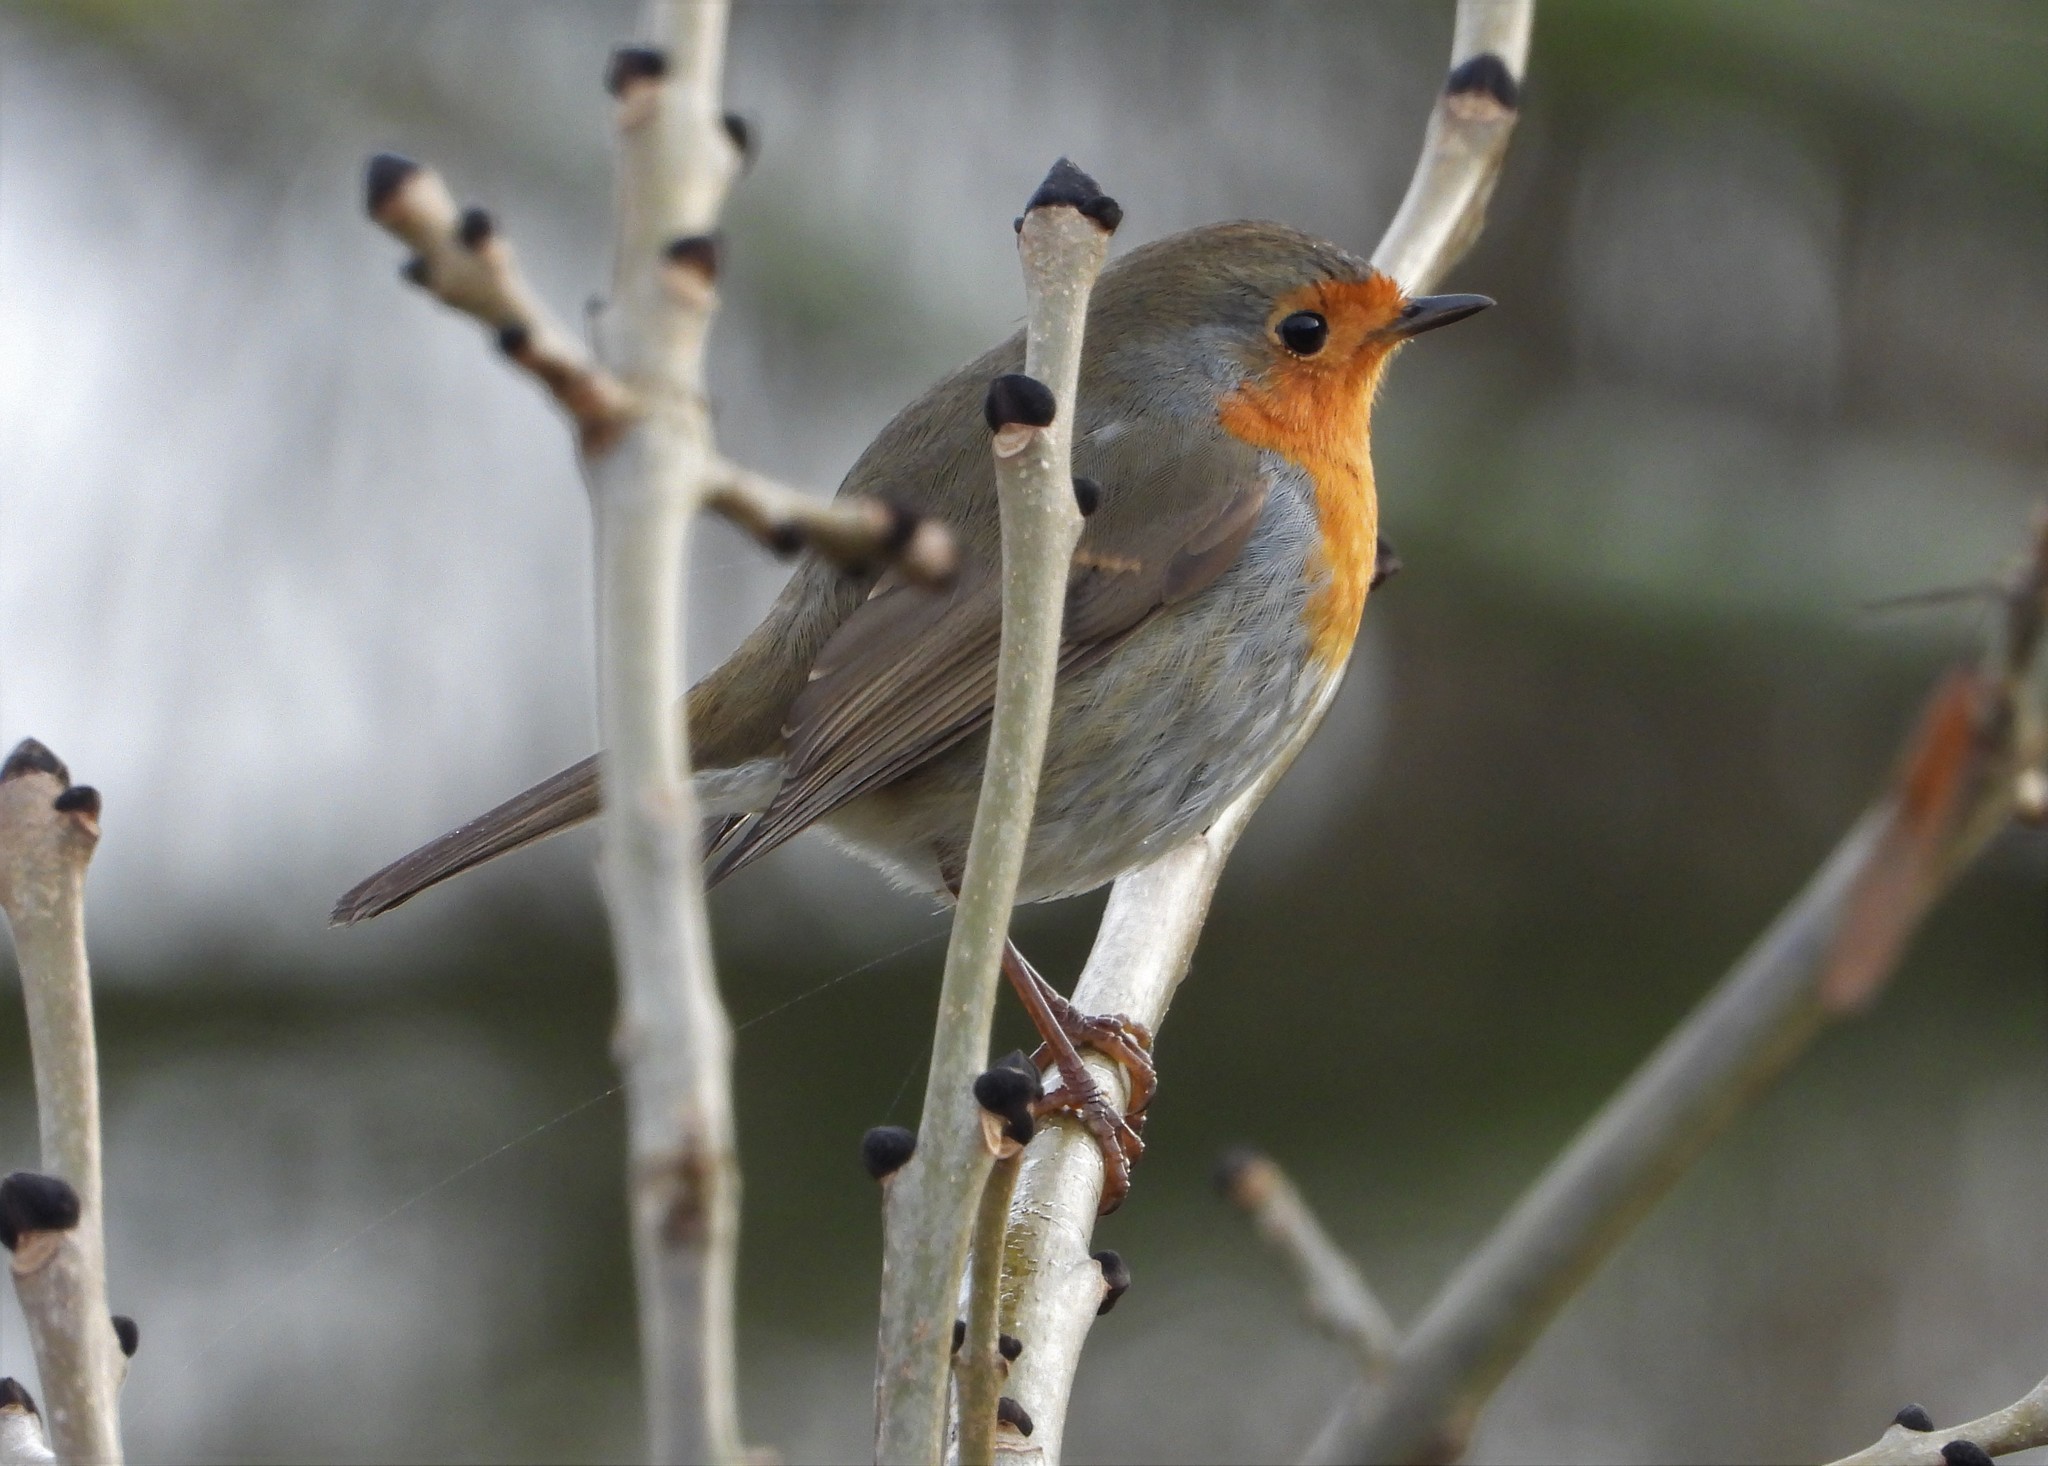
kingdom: Animalia
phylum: Chordata
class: Aves
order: Passeriformes
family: Muscicapidae
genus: Erithacus
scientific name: Erithacus rubecula
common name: European robin
